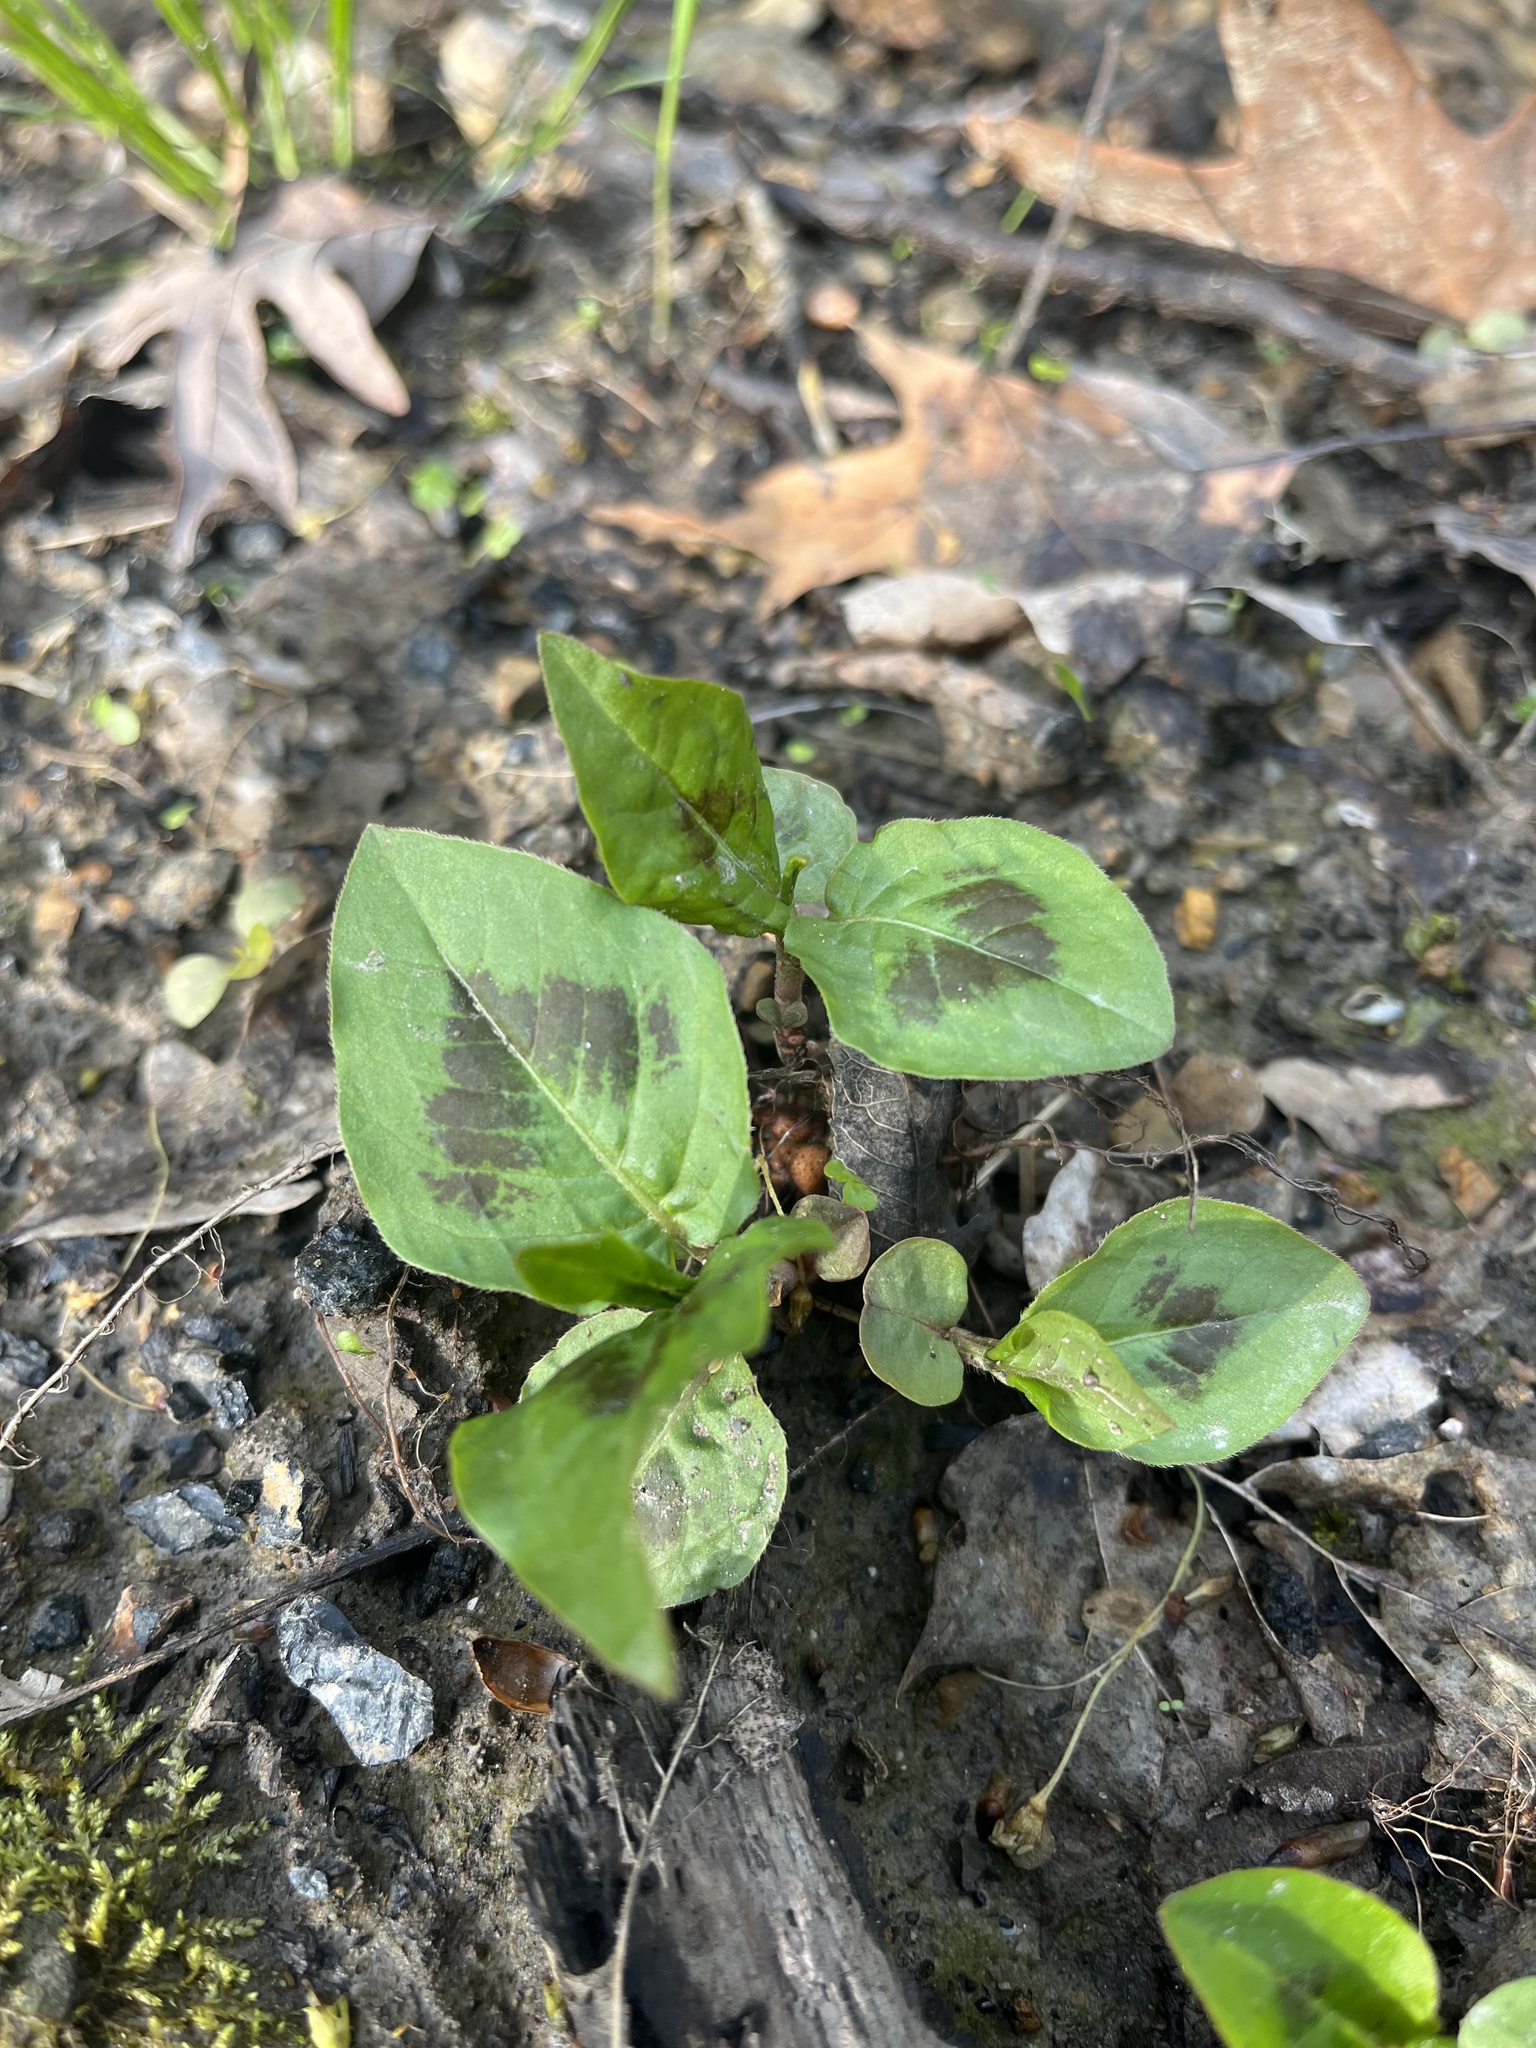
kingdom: Plantae
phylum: Tracheophyta
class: Magnoliopsida
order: Caryophyllales
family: Polygonaceae
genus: Persicaria
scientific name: Persicaria virginiana
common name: Jumpseed
